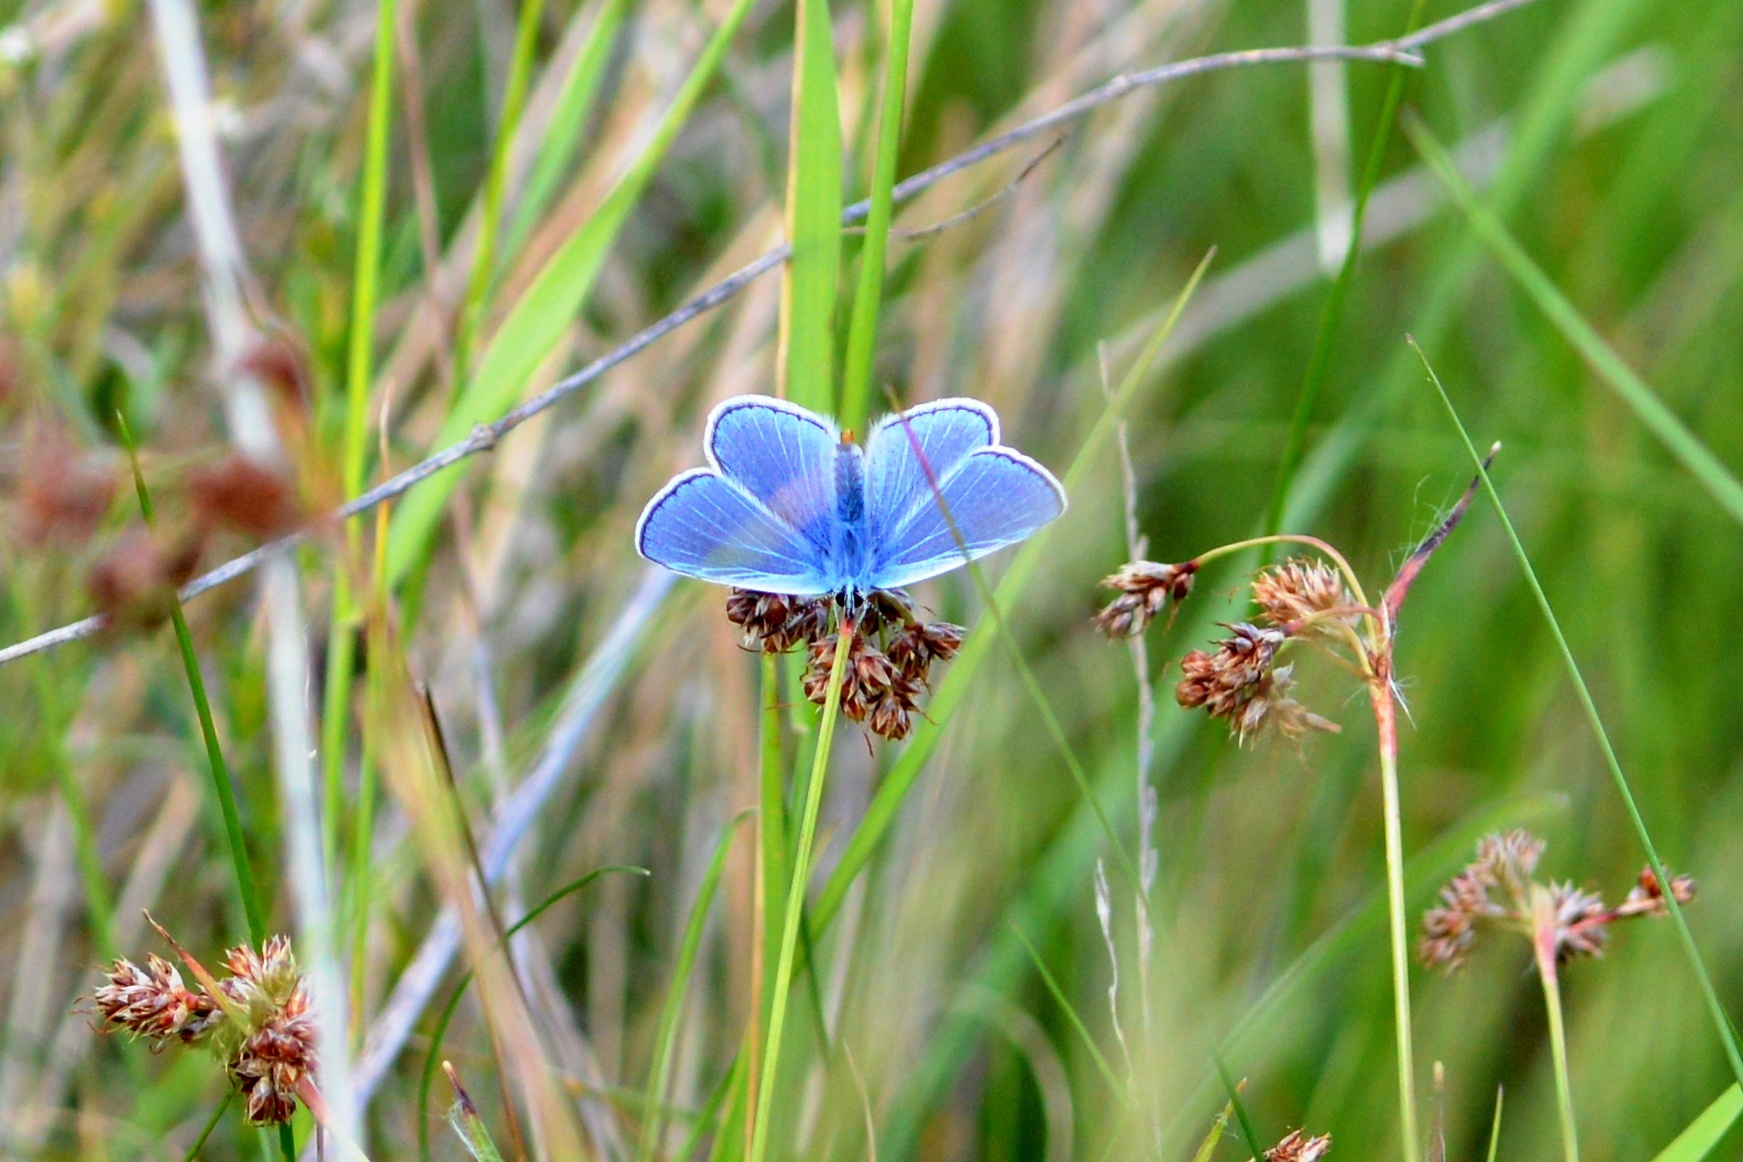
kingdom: Animalia
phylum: Arthropoda
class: Insecta
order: Lepidoptera
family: Lycaenidae
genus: Polyommatus
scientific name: Polyommatus icarus
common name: Common blue
